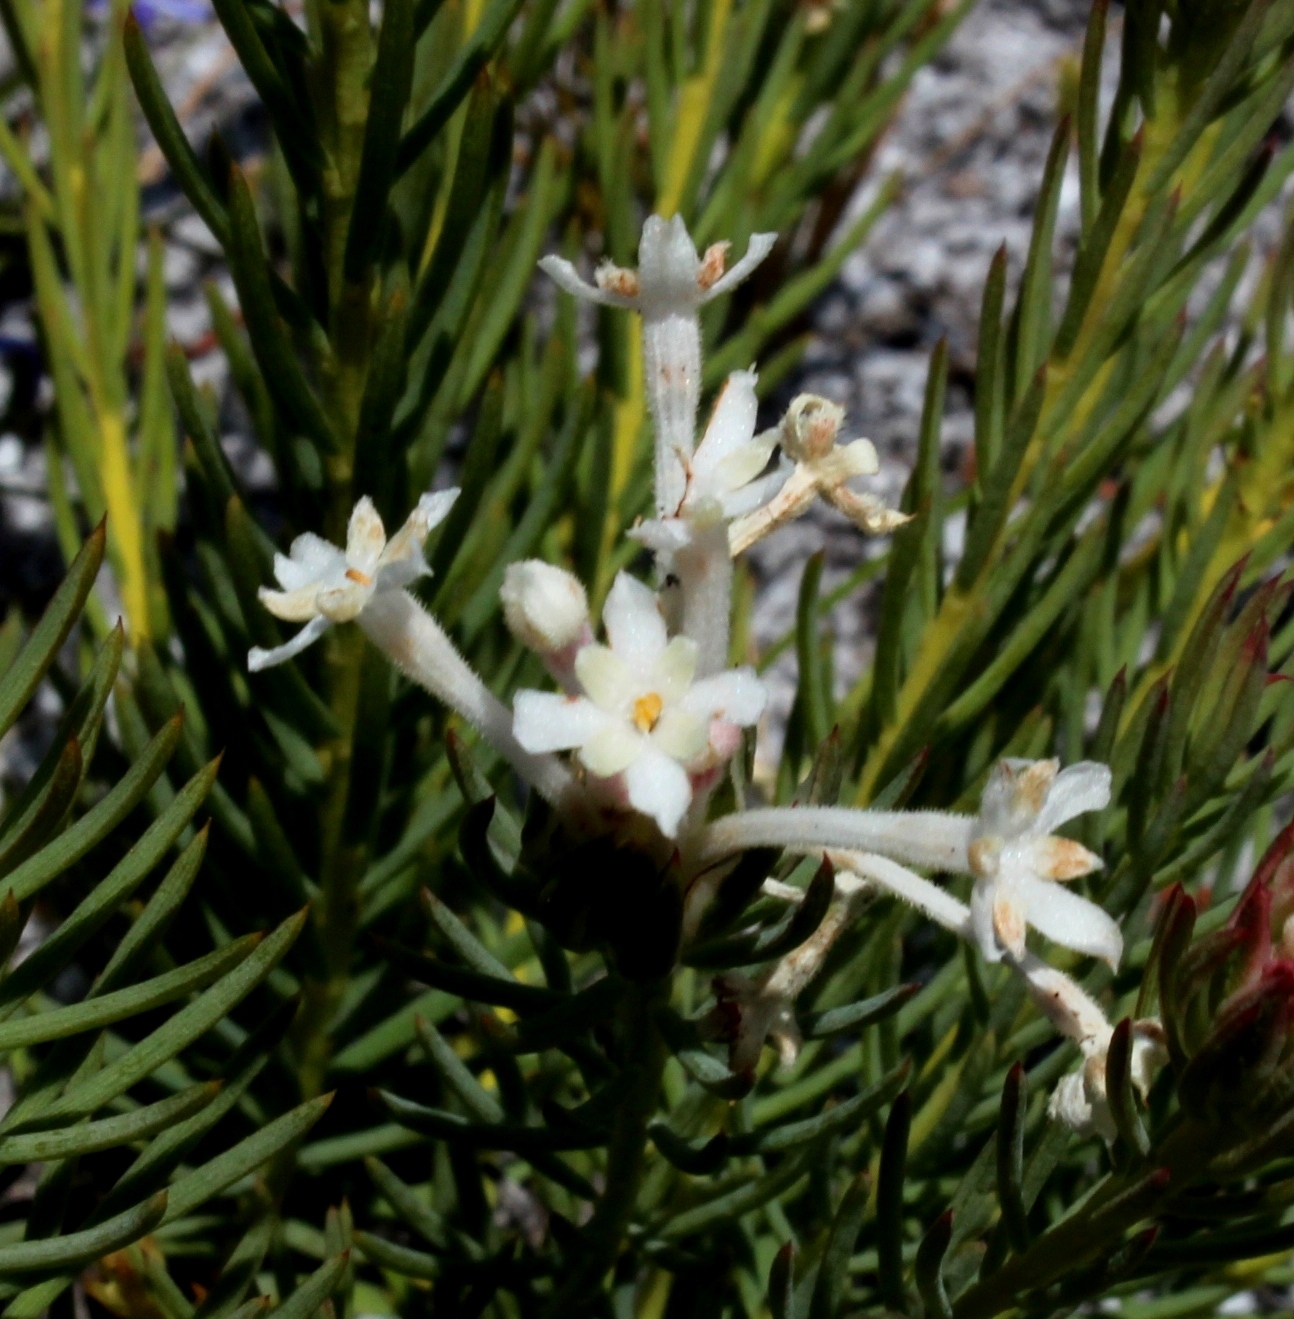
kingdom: Plantae
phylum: Tracheophyta
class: Magnoliopsida
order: Malvales
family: Thymelaeaceae
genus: Gnidia
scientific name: Gnidia pinifolia
